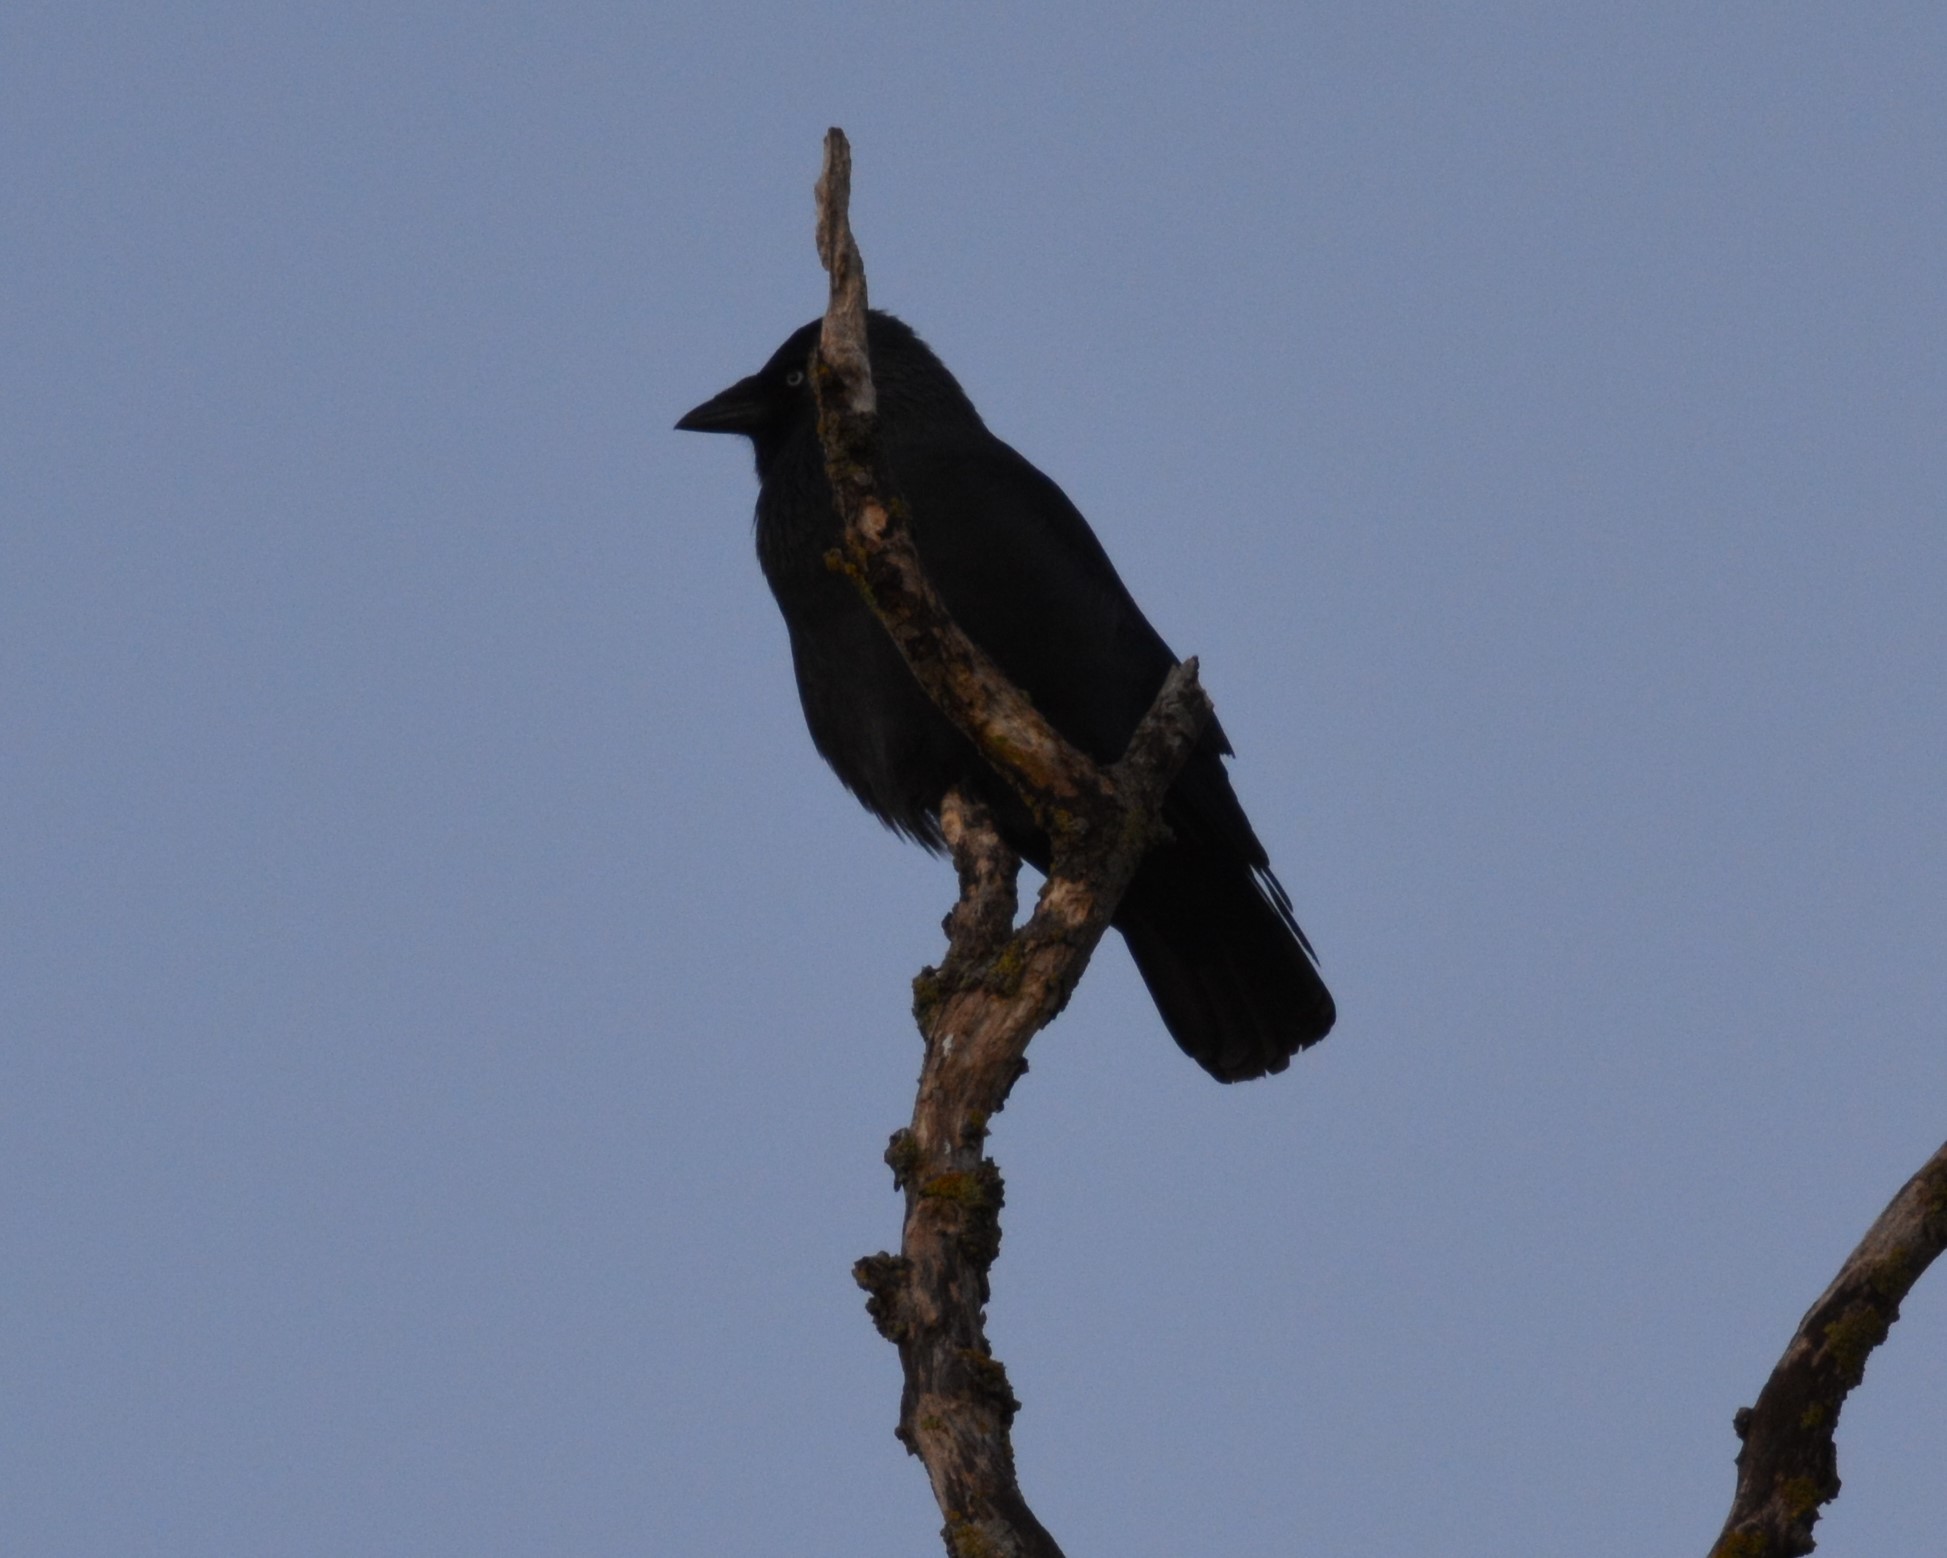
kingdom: Animalia
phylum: Chordata
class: Aves
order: Passeriformes
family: Corvidae
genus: Coloeus
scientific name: Coloeus monedula
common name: Western jackdaw
